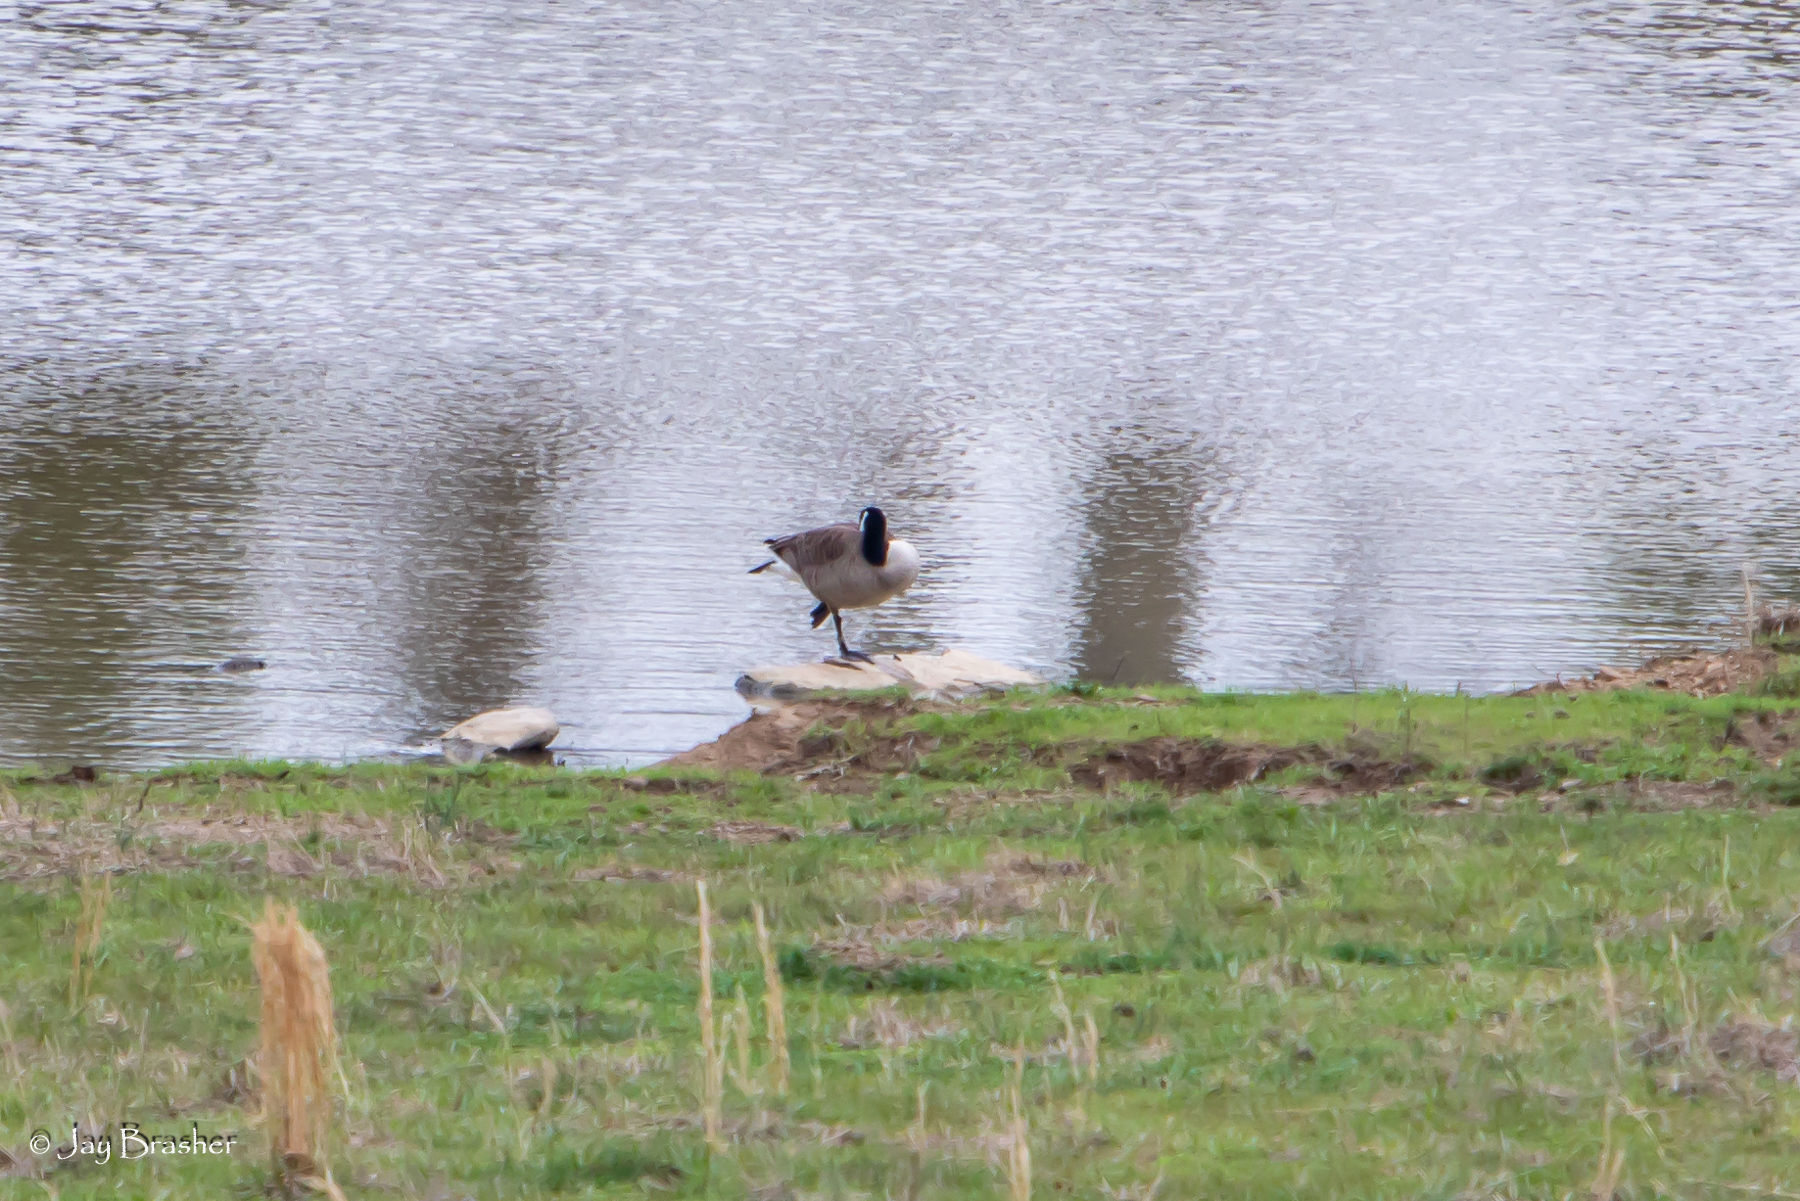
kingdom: Animalia
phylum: Chordata
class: Aves
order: Anseriformes
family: Anatidae
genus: Branta
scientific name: Branta canadensis
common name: Canada goose
